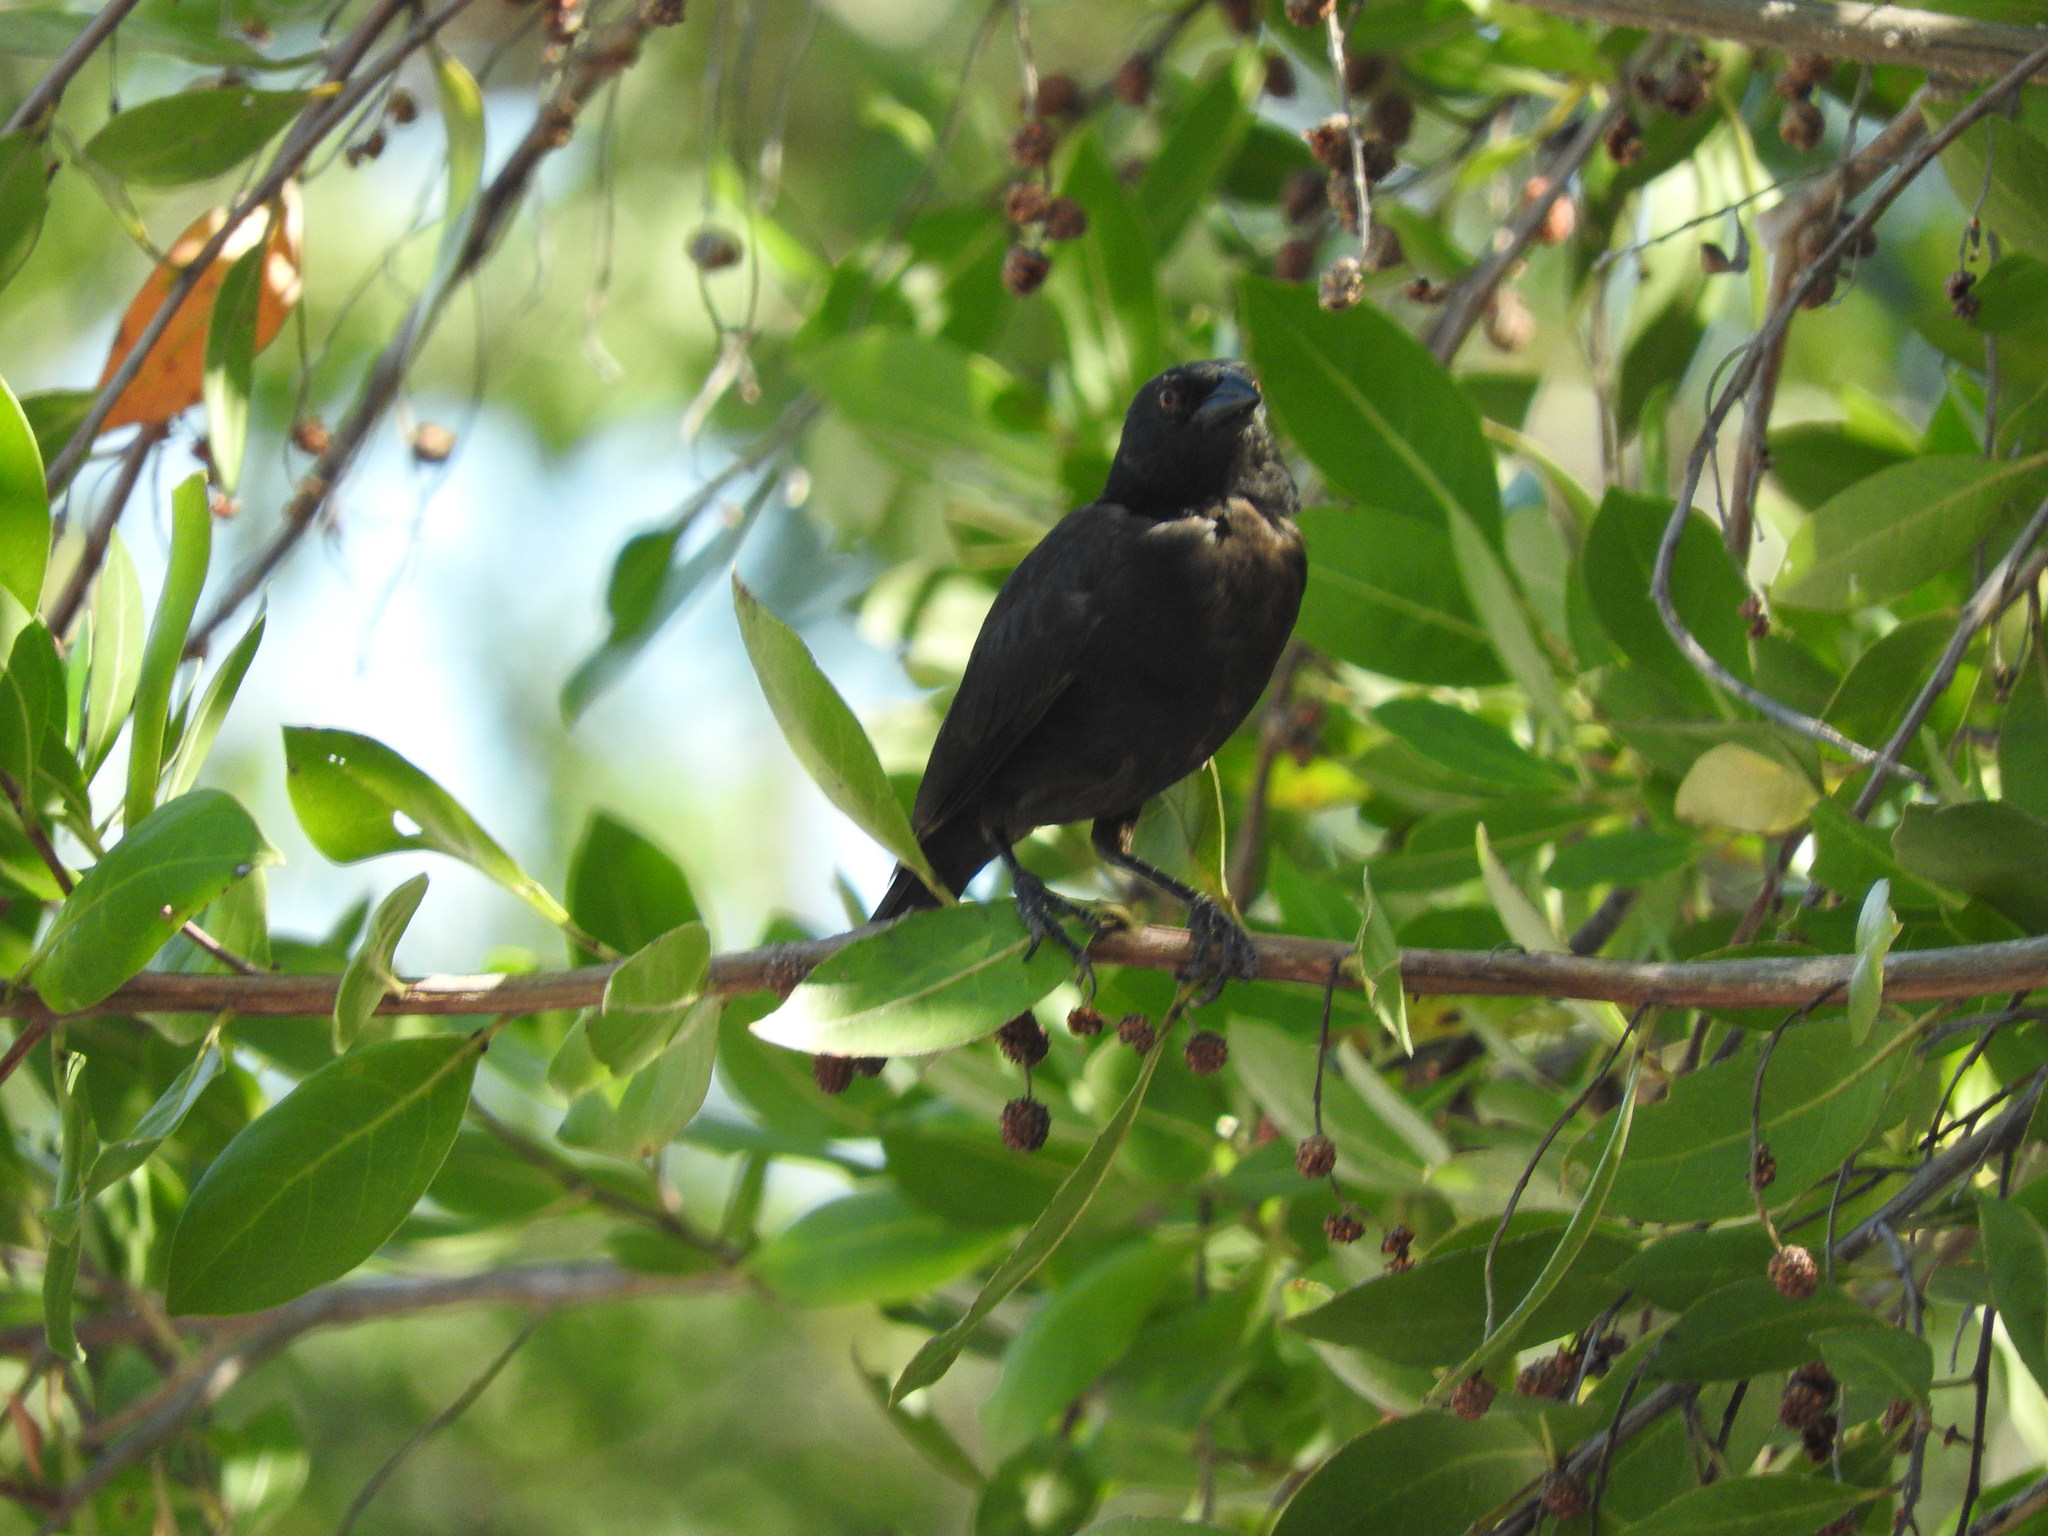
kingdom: Animalia
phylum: Chordata
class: Aves
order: Passeriformes
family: Icteridae
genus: Molothrus
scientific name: Molothrus aeneus
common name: Bronzed cowbird
